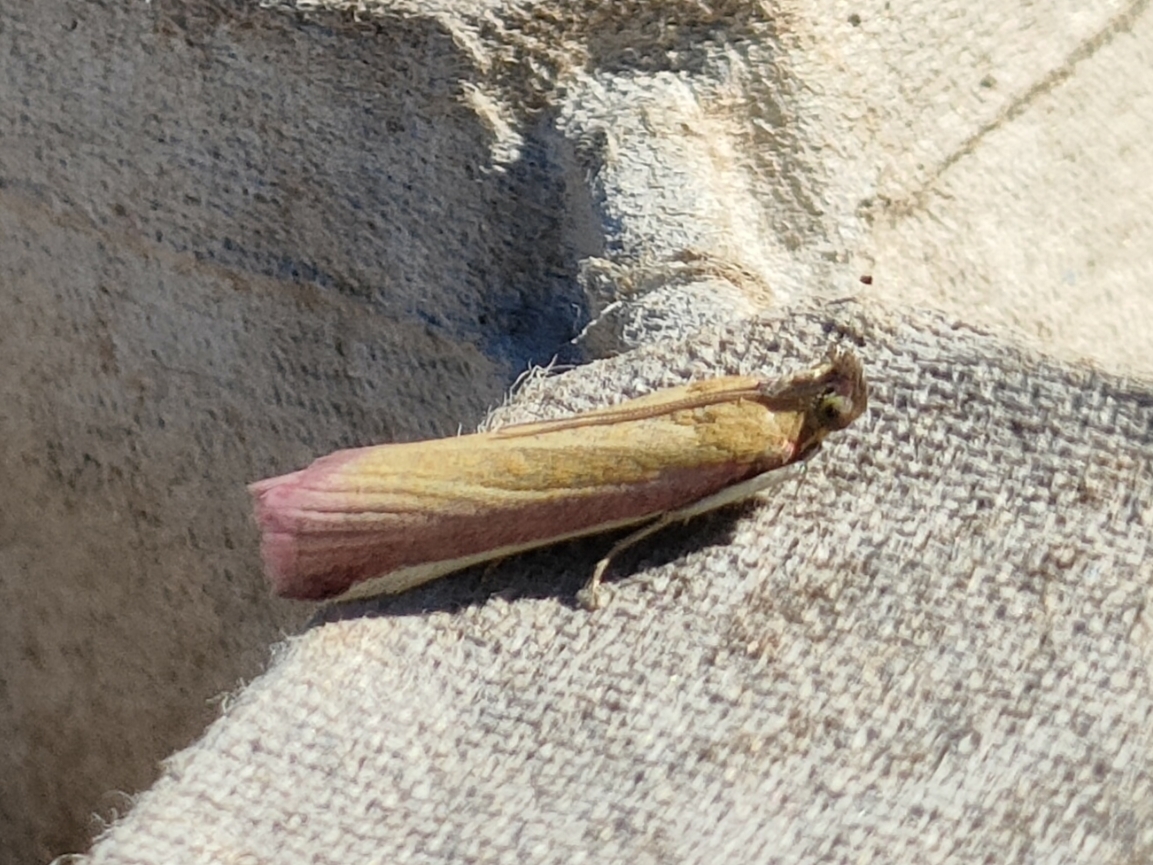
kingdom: Animalia
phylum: Arthropoda
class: Insecta
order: Lepidoptera
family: Pyralidae
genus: Oncocera
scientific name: Oncocera semirubella
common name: Rosy-striped knot-horn
